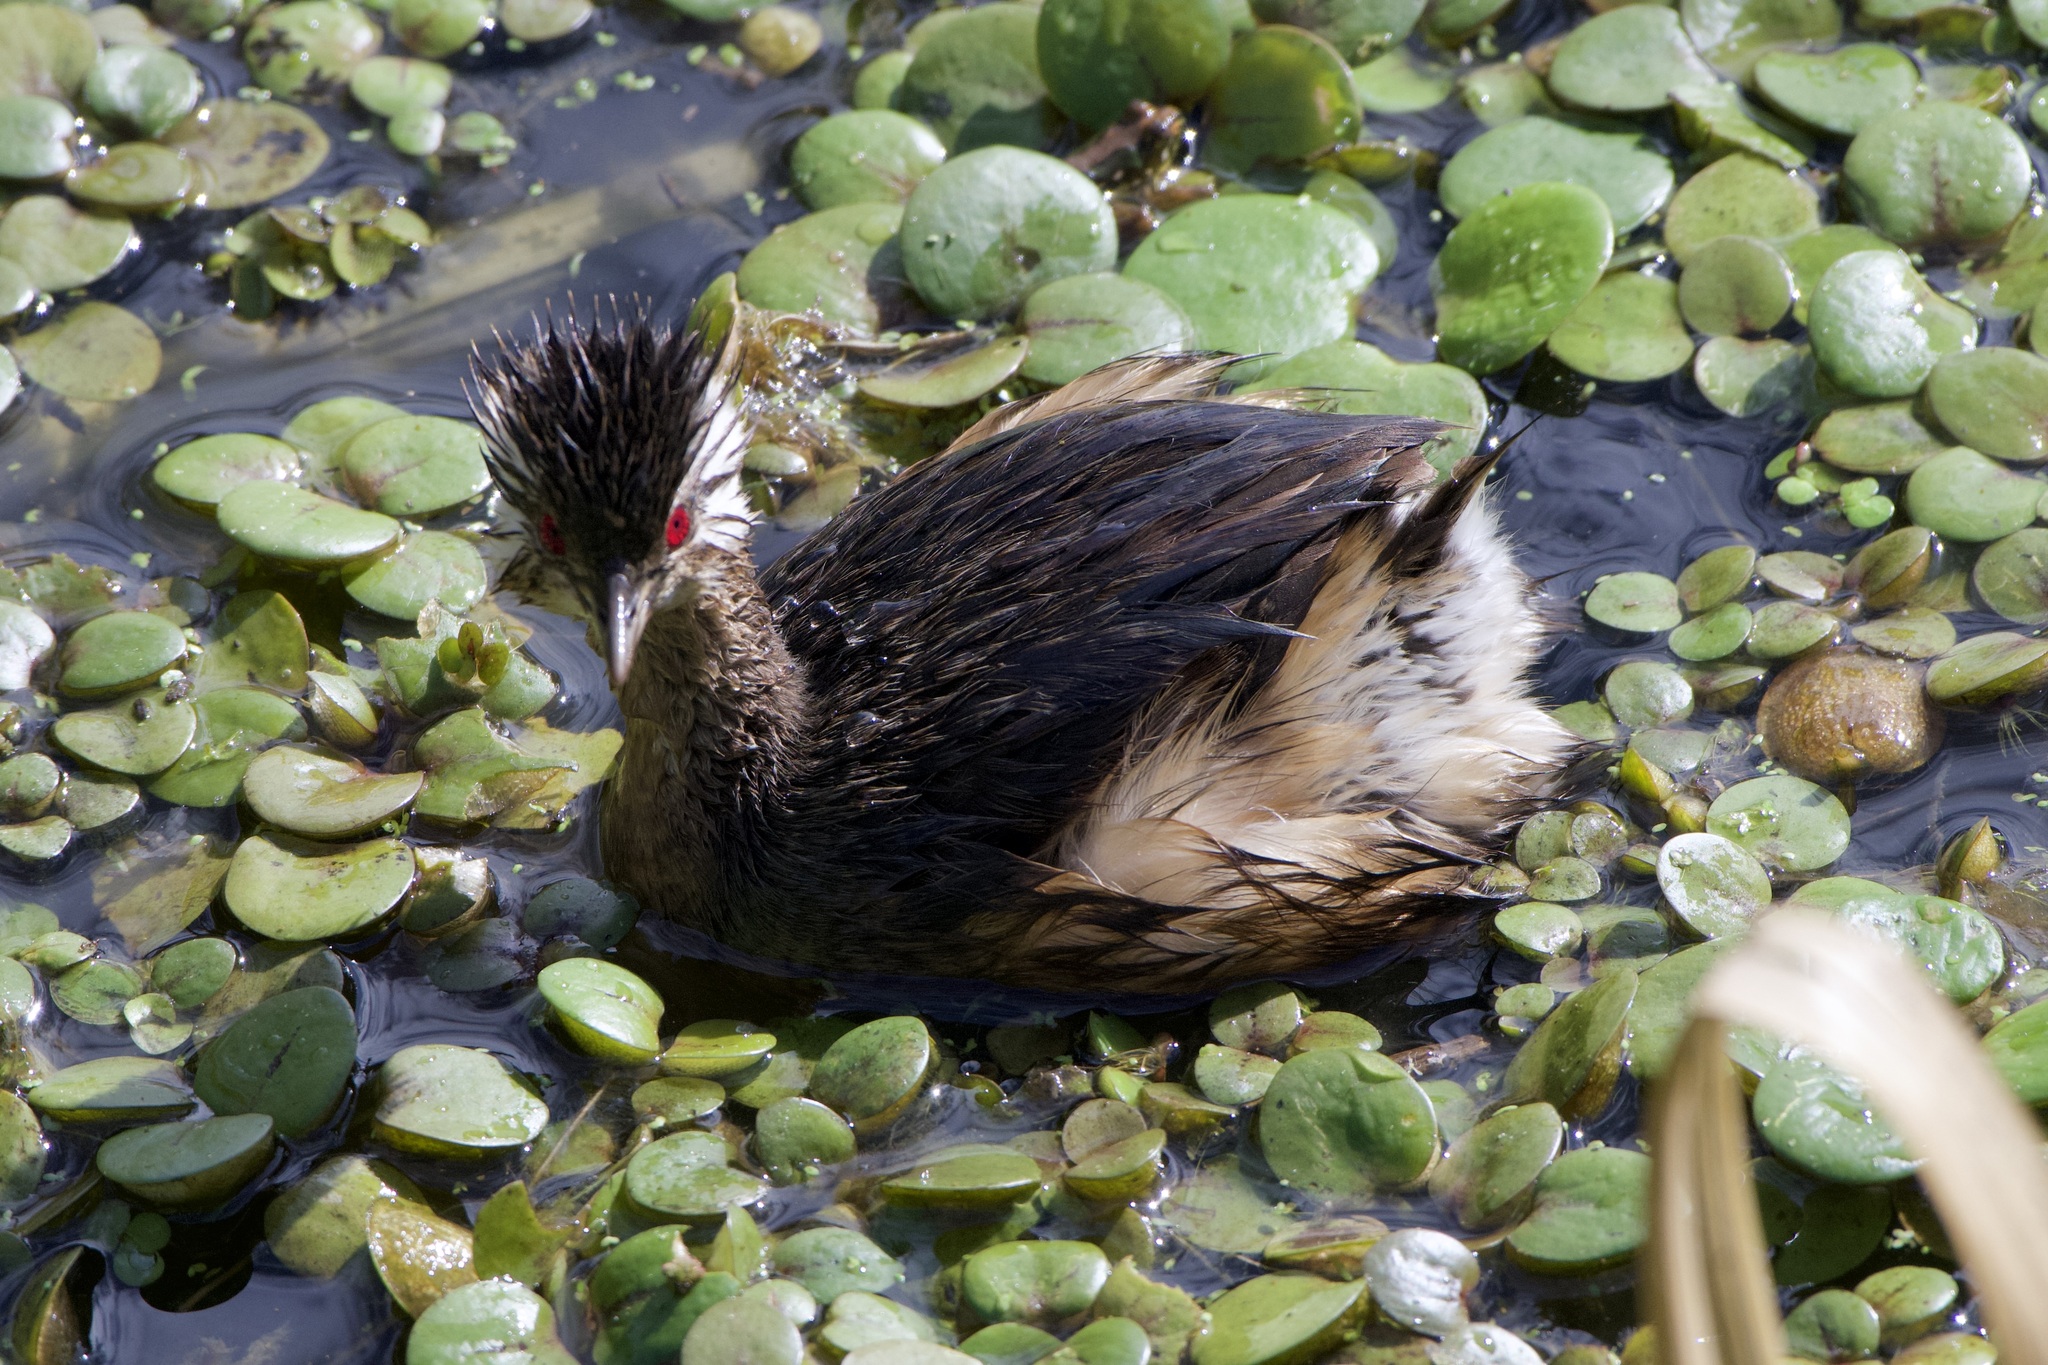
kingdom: Animalia
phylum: Chordata
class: Aves
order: Podicipediformes
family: Podicipedidae
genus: Rollandia
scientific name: Rollandia rolland
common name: White-tufted grebe
